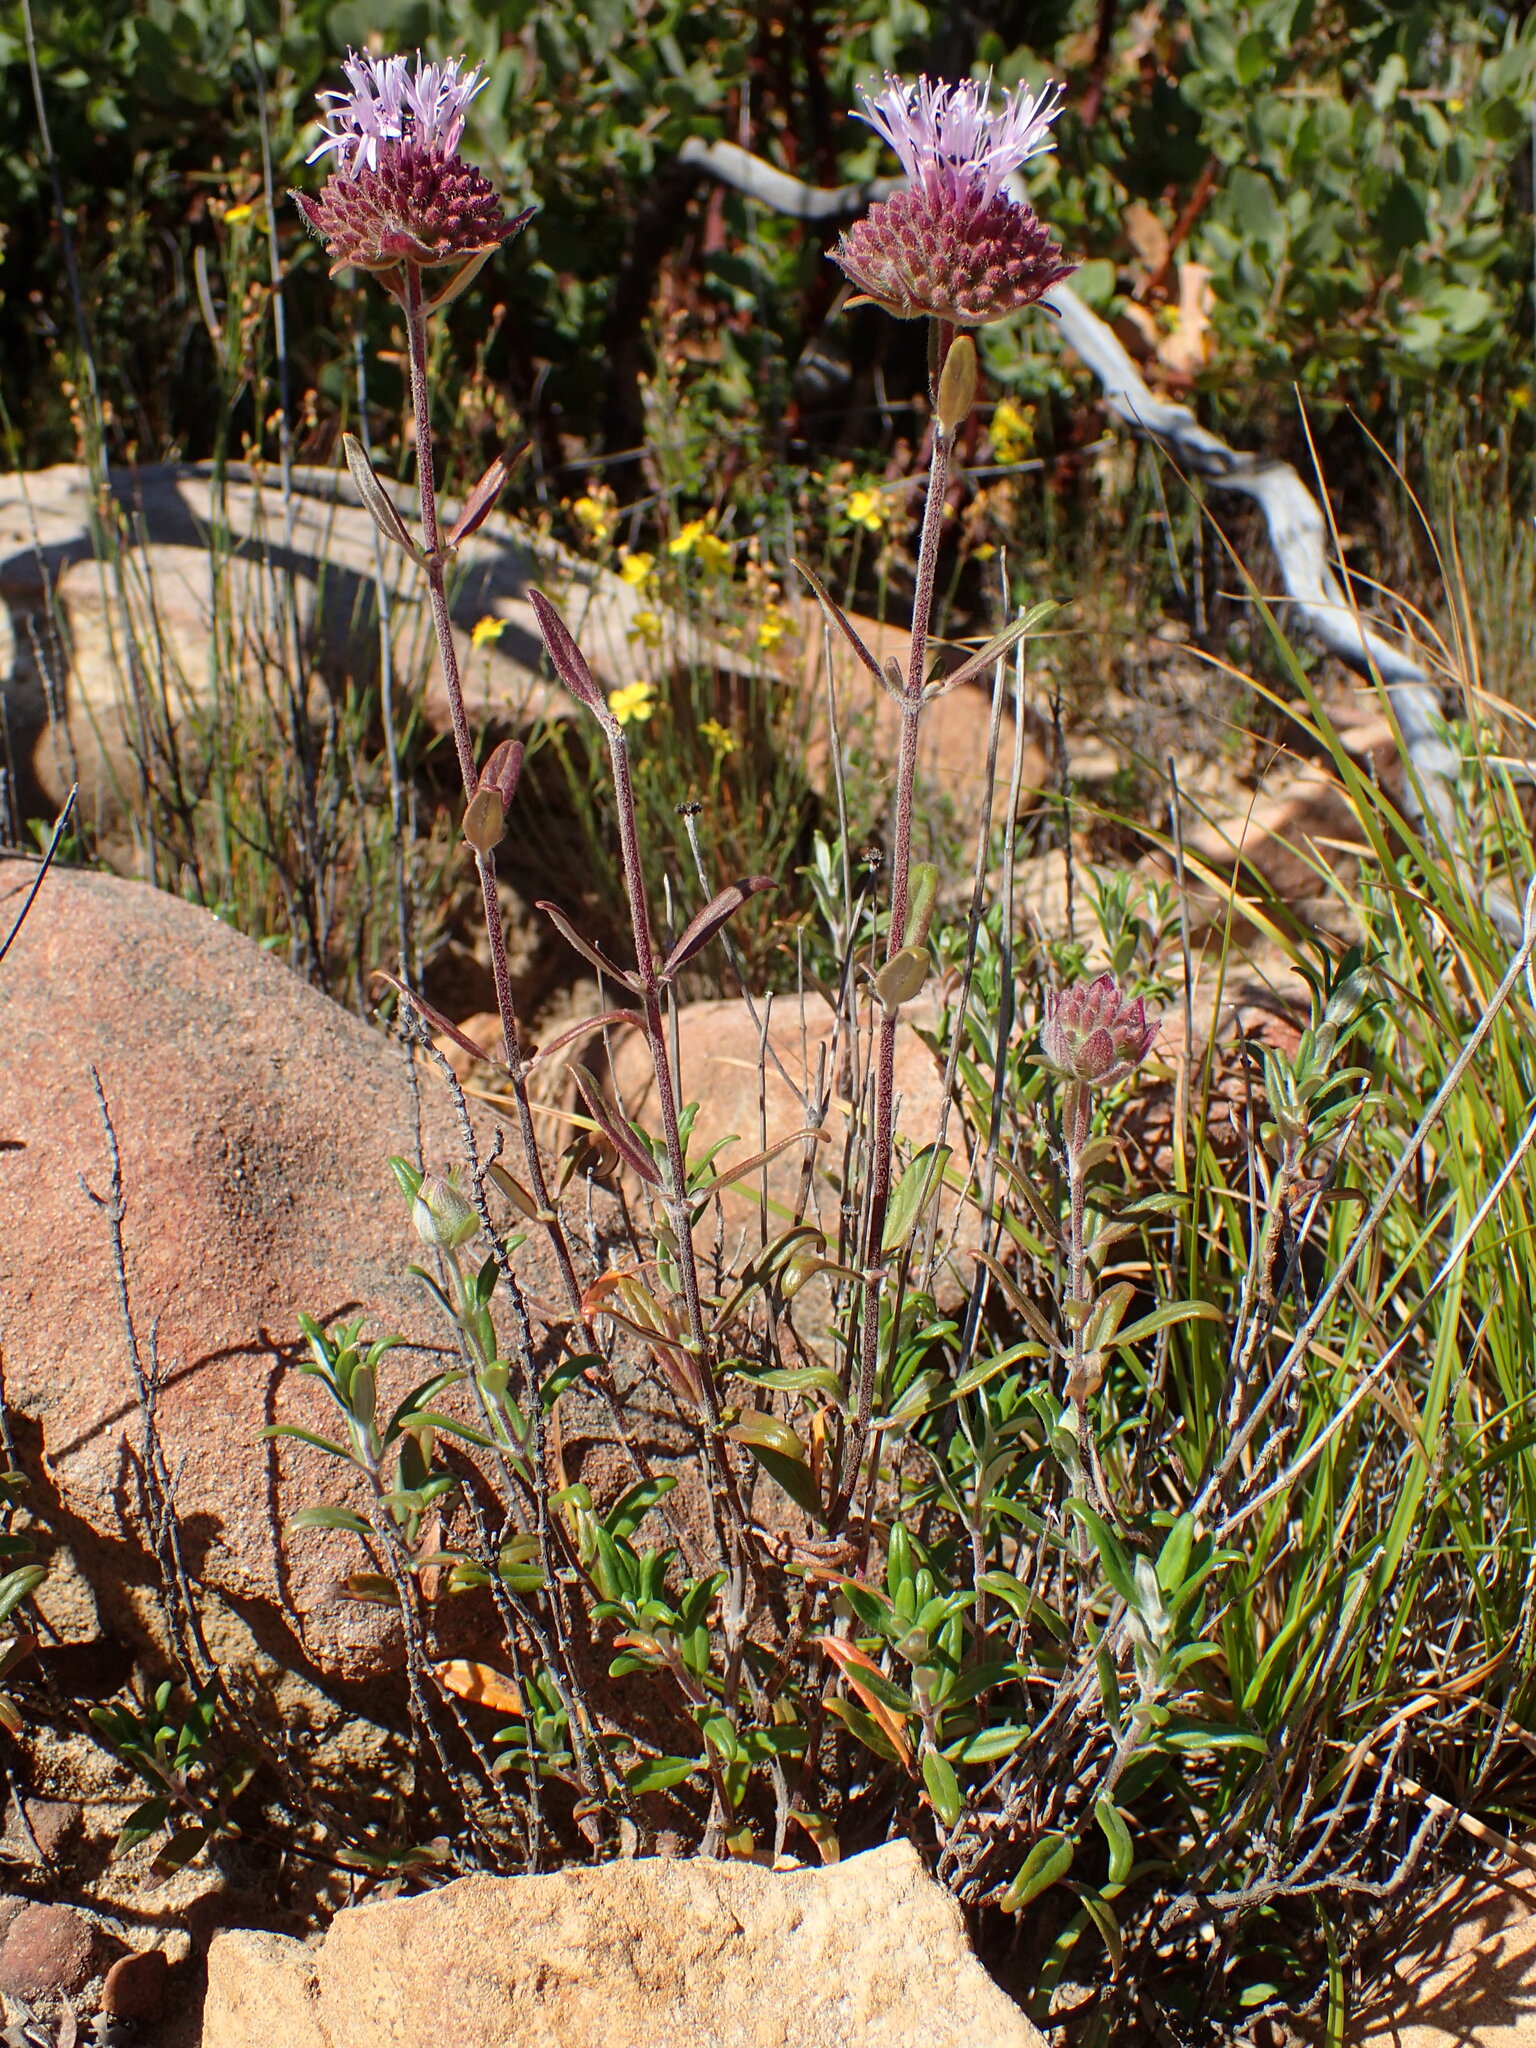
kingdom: Plantae
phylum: Tracheophyta
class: Magnoliopsida
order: Lamiales
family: Lamiaceae
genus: Monardella
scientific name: Monardella hypoleuca
